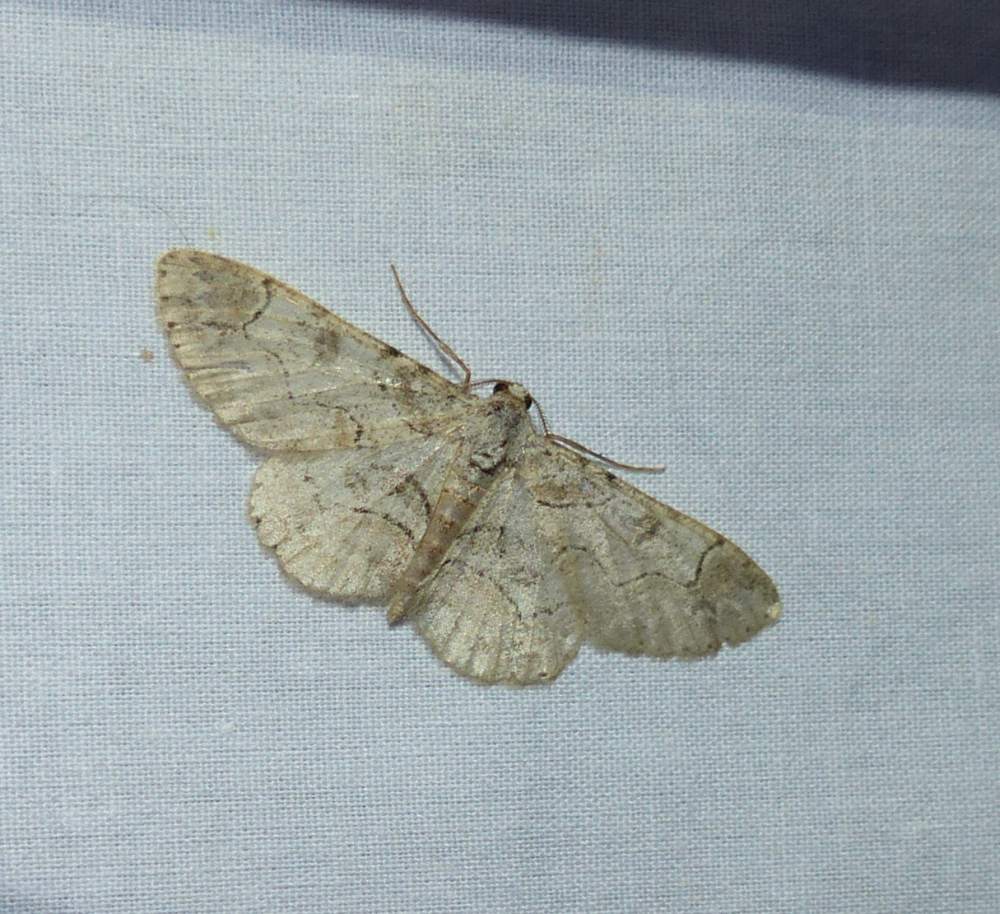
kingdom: Animalia
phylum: Arthropoda
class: Insecta
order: Lepidoptera
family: Geometridae
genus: Iridopsis
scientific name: Iridopsis larvaria
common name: Bent-line gray
